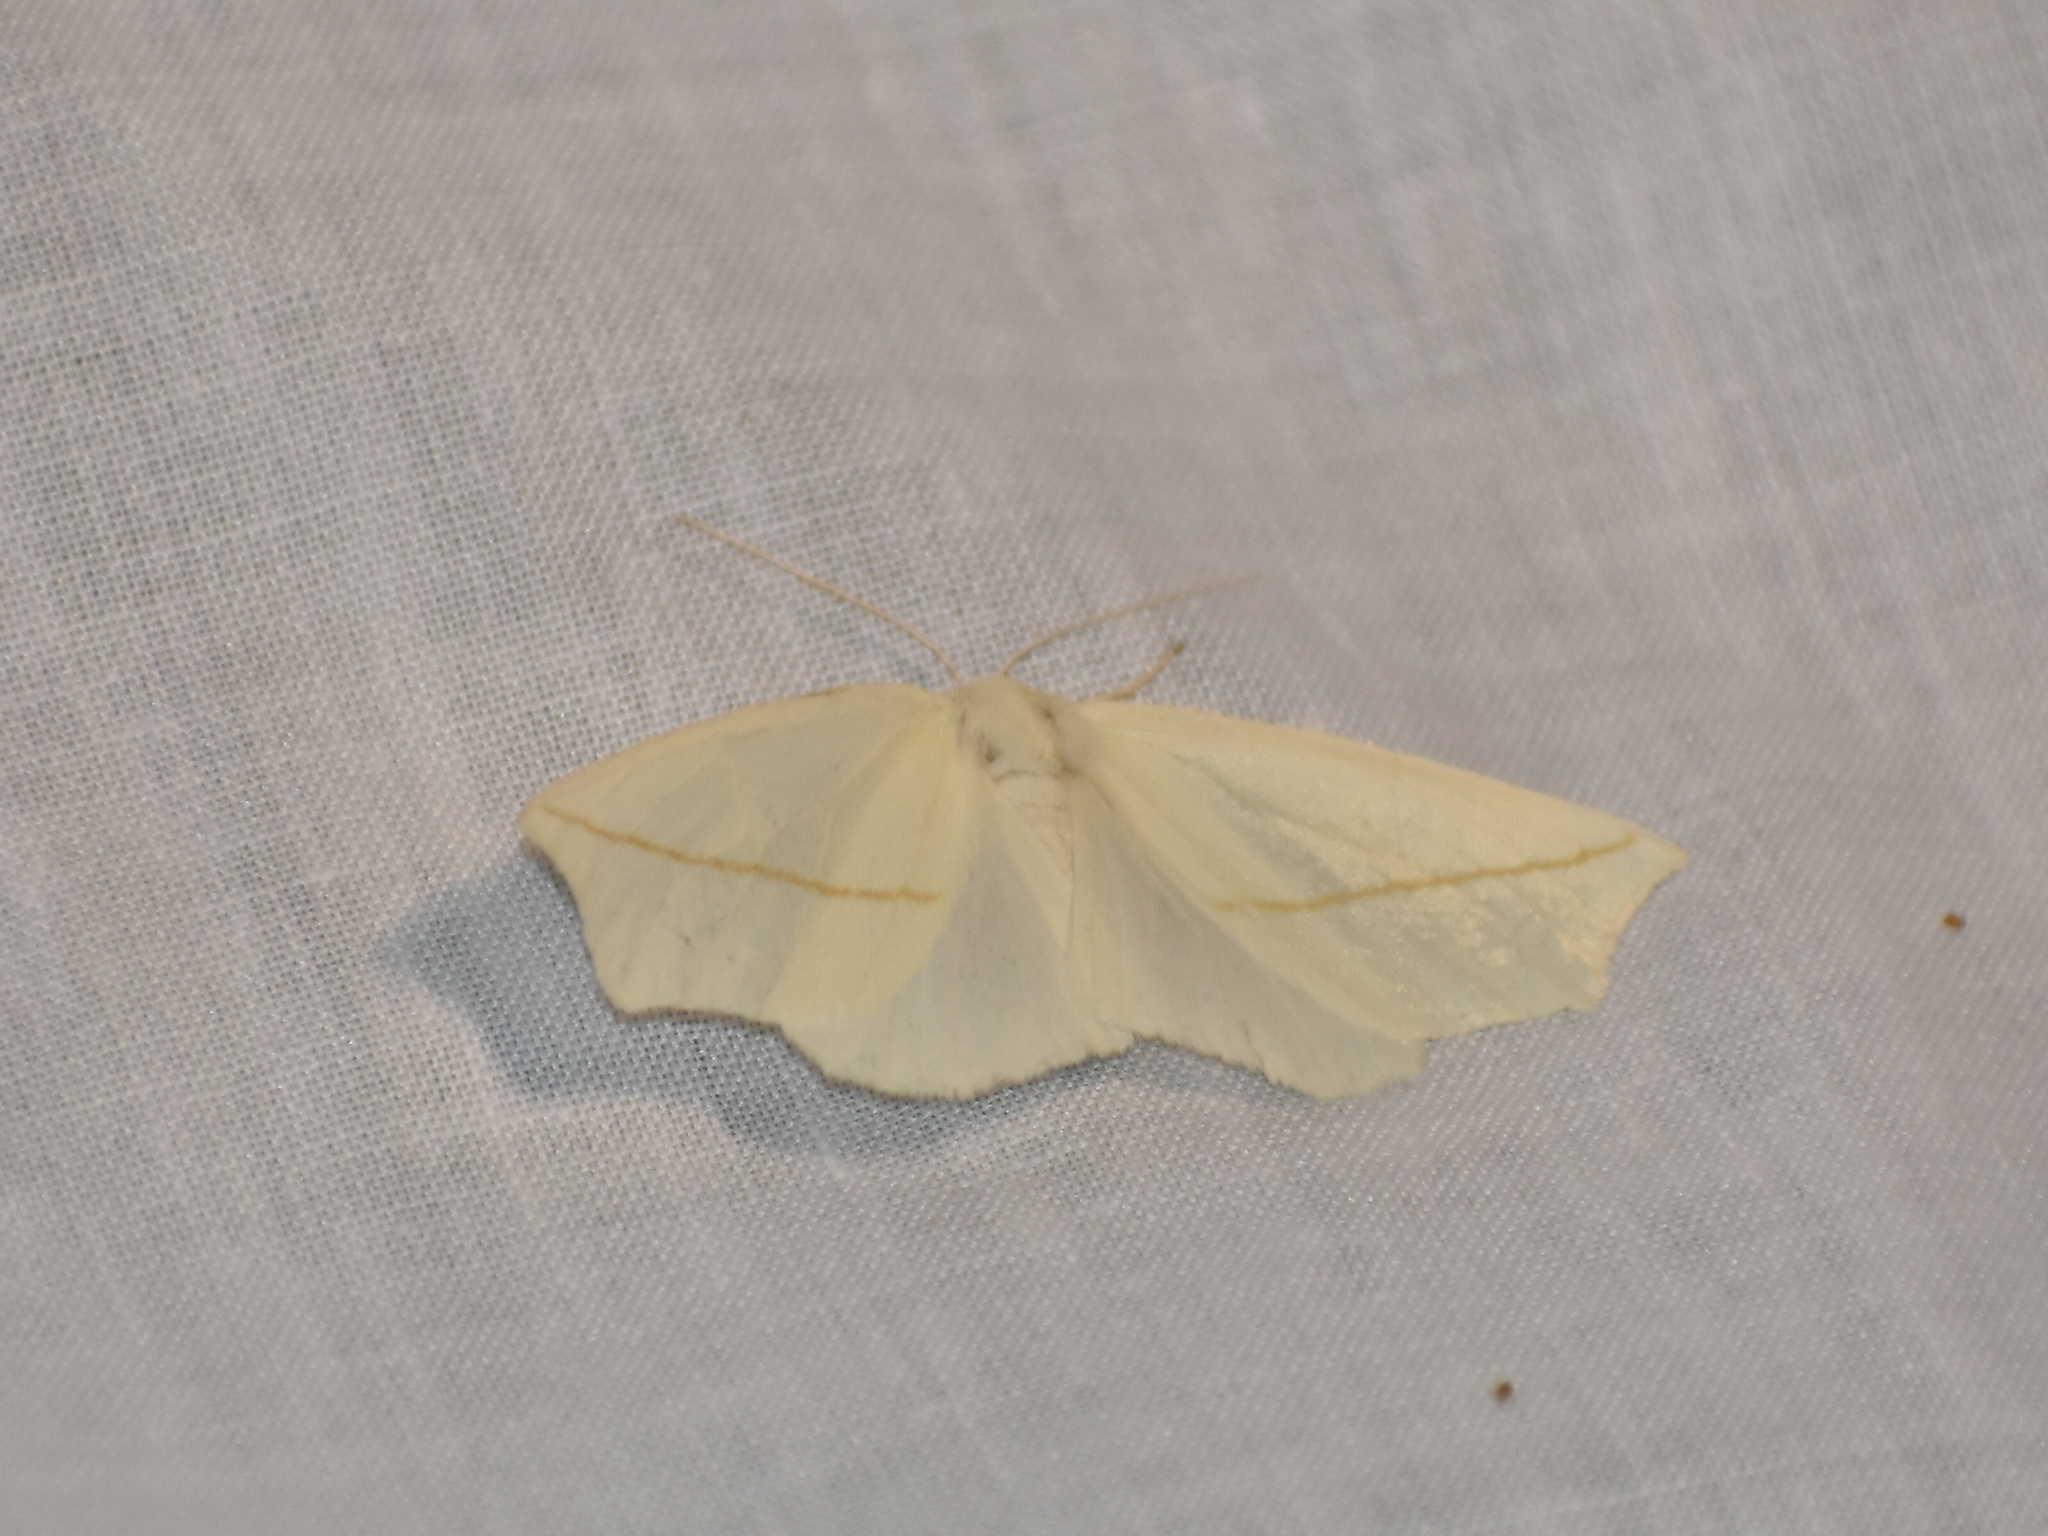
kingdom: Animalia
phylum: Arthropoda
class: Insecta
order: Lepidoptera
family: Geometridae
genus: Tetracis
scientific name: Tetracis cachexiata
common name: White slant-line
